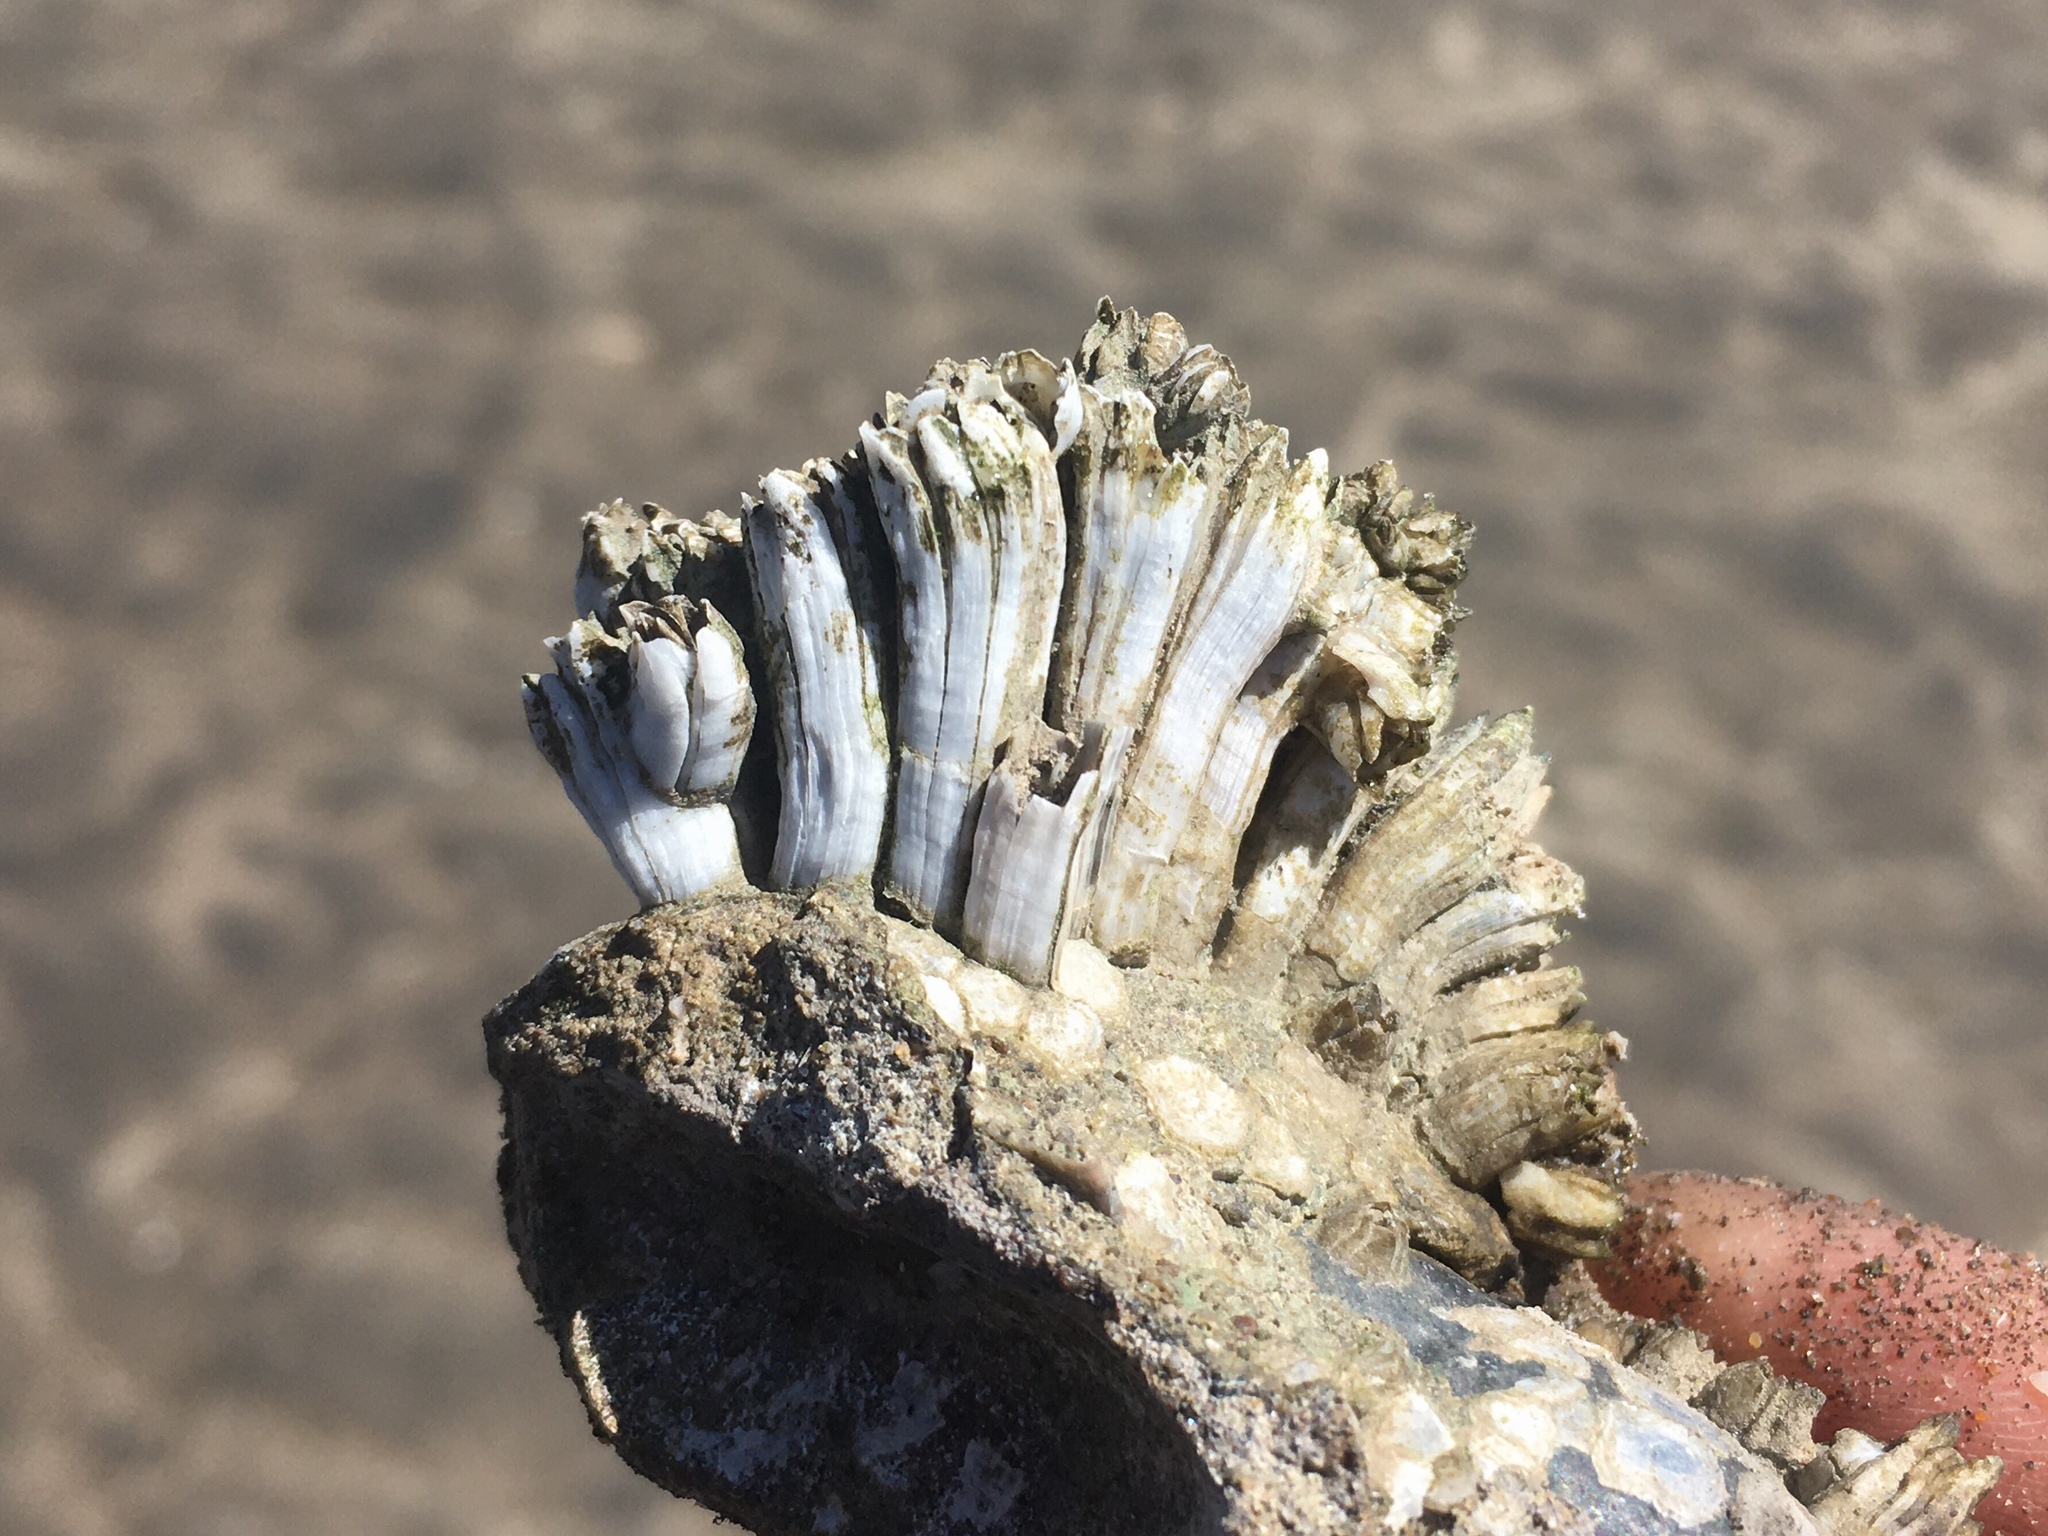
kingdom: Animalia
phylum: Arthropoda
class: Maxillopoda
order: Sessilia
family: Balanidae
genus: Balanus
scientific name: Balanus glandula
